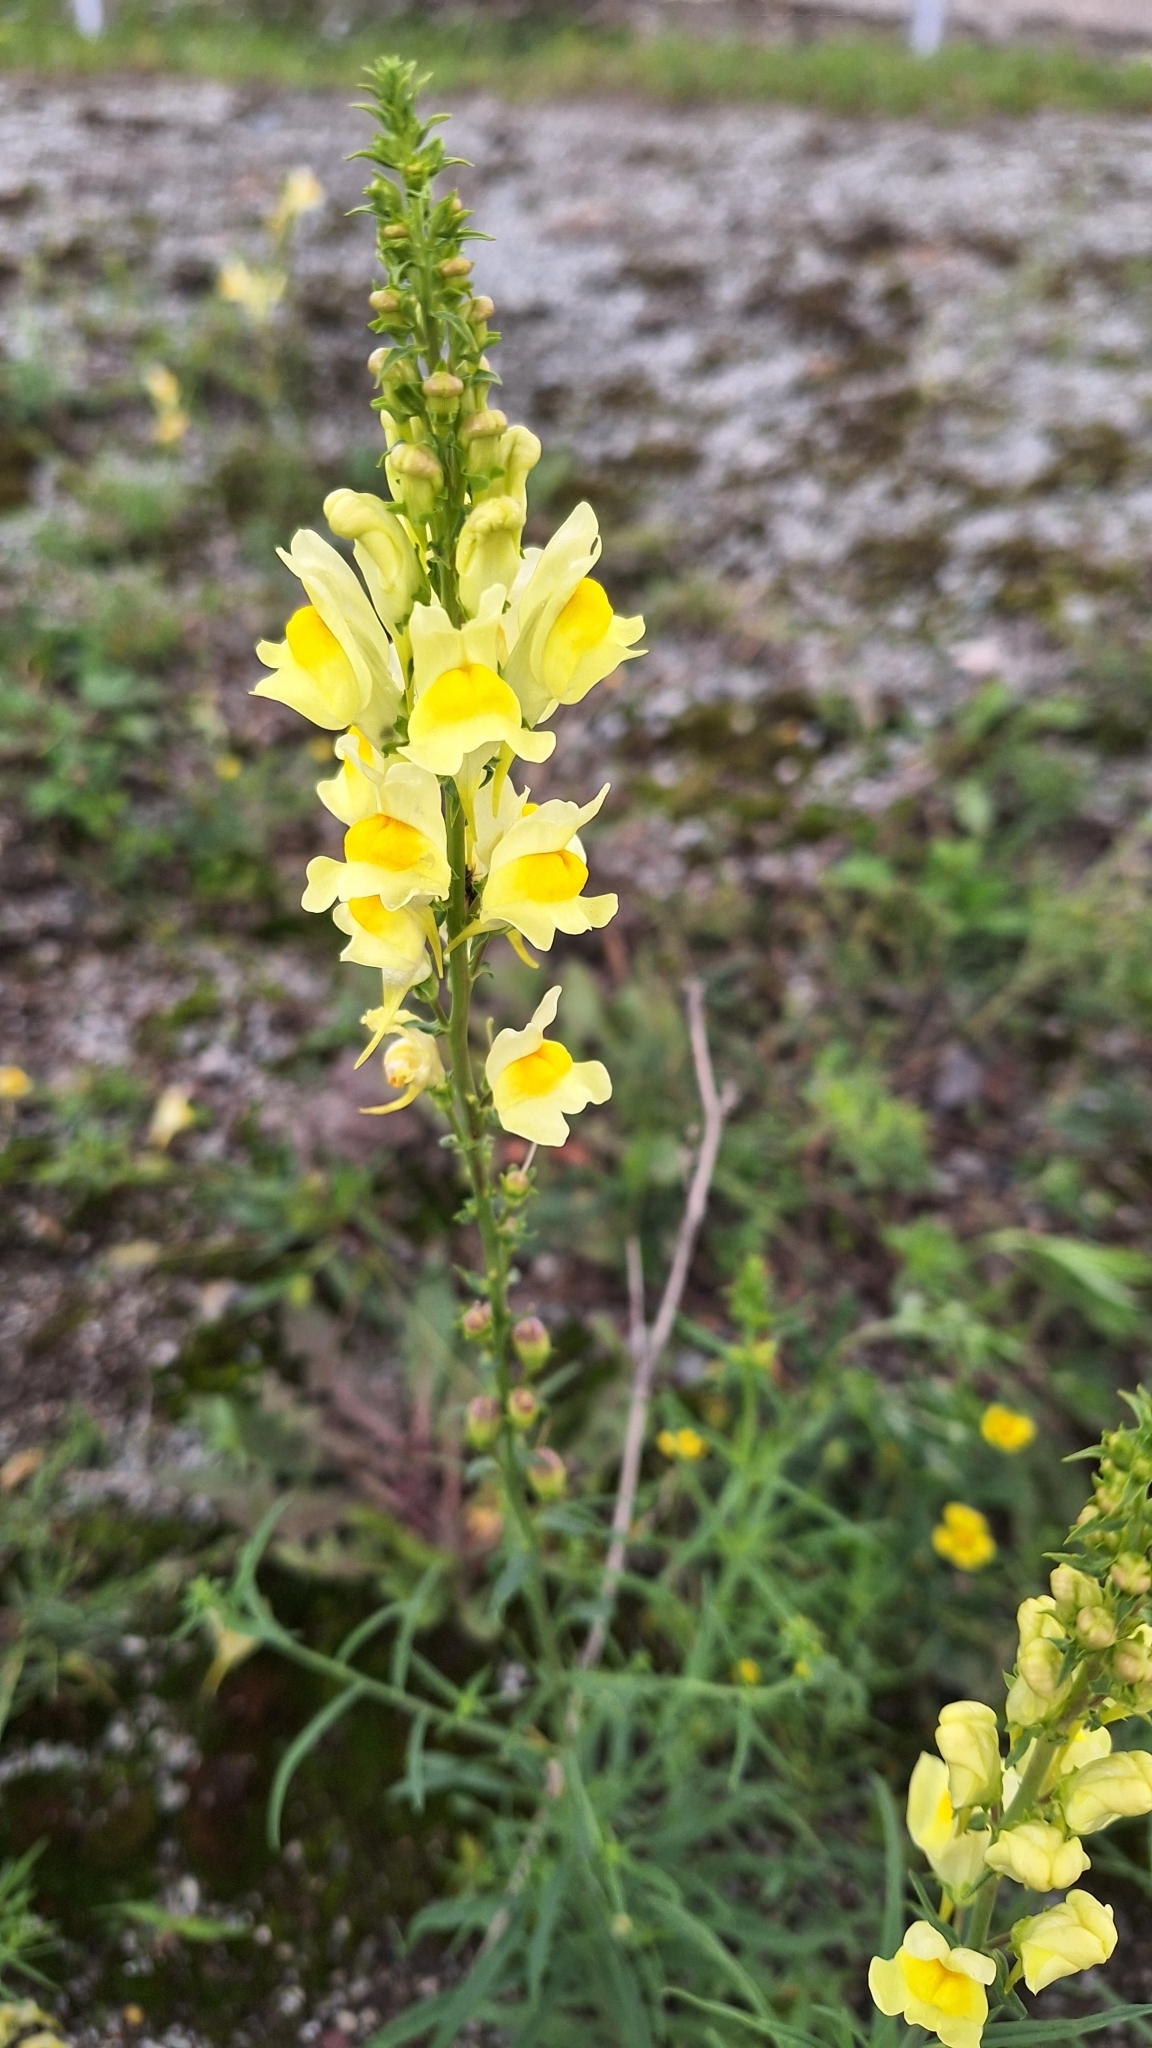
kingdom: Plantae
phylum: Tracheophyta
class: Magnoliopsida
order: Lamiales
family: Plantaginaceae
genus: Linaria
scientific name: Linaria vulgaris
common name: Butter and eggs
